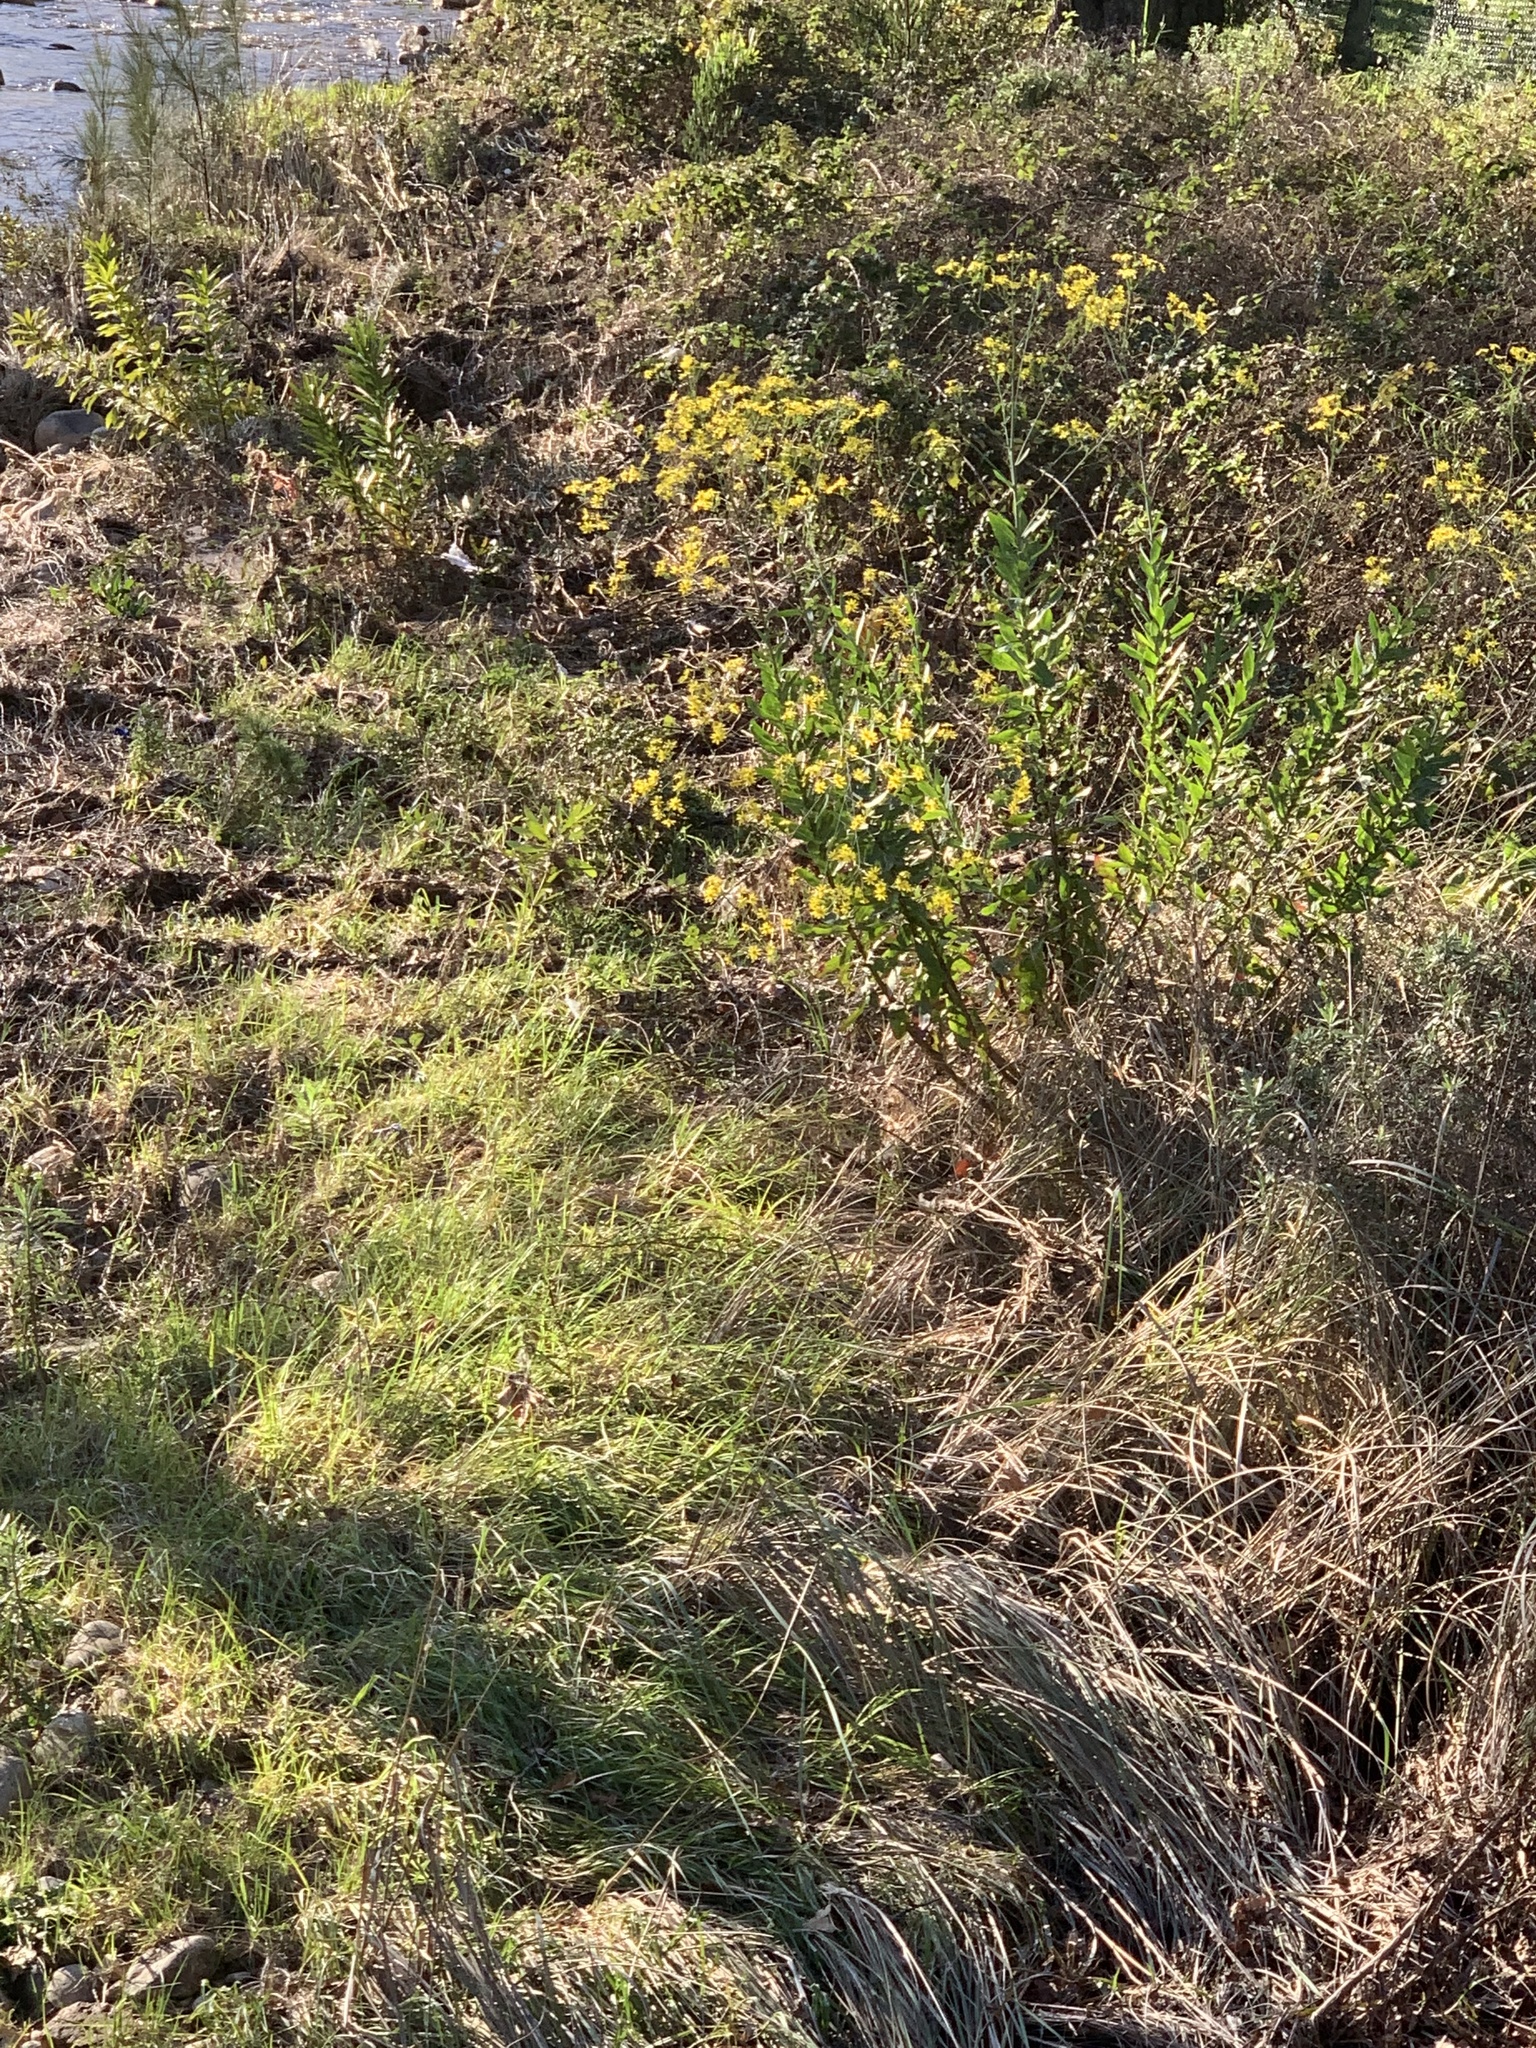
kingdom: Plantae
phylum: Tracheophyta
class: Magnoliopsida
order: Asterales
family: Asteraceae
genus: Othonna
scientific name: Othonna quinquedentata
